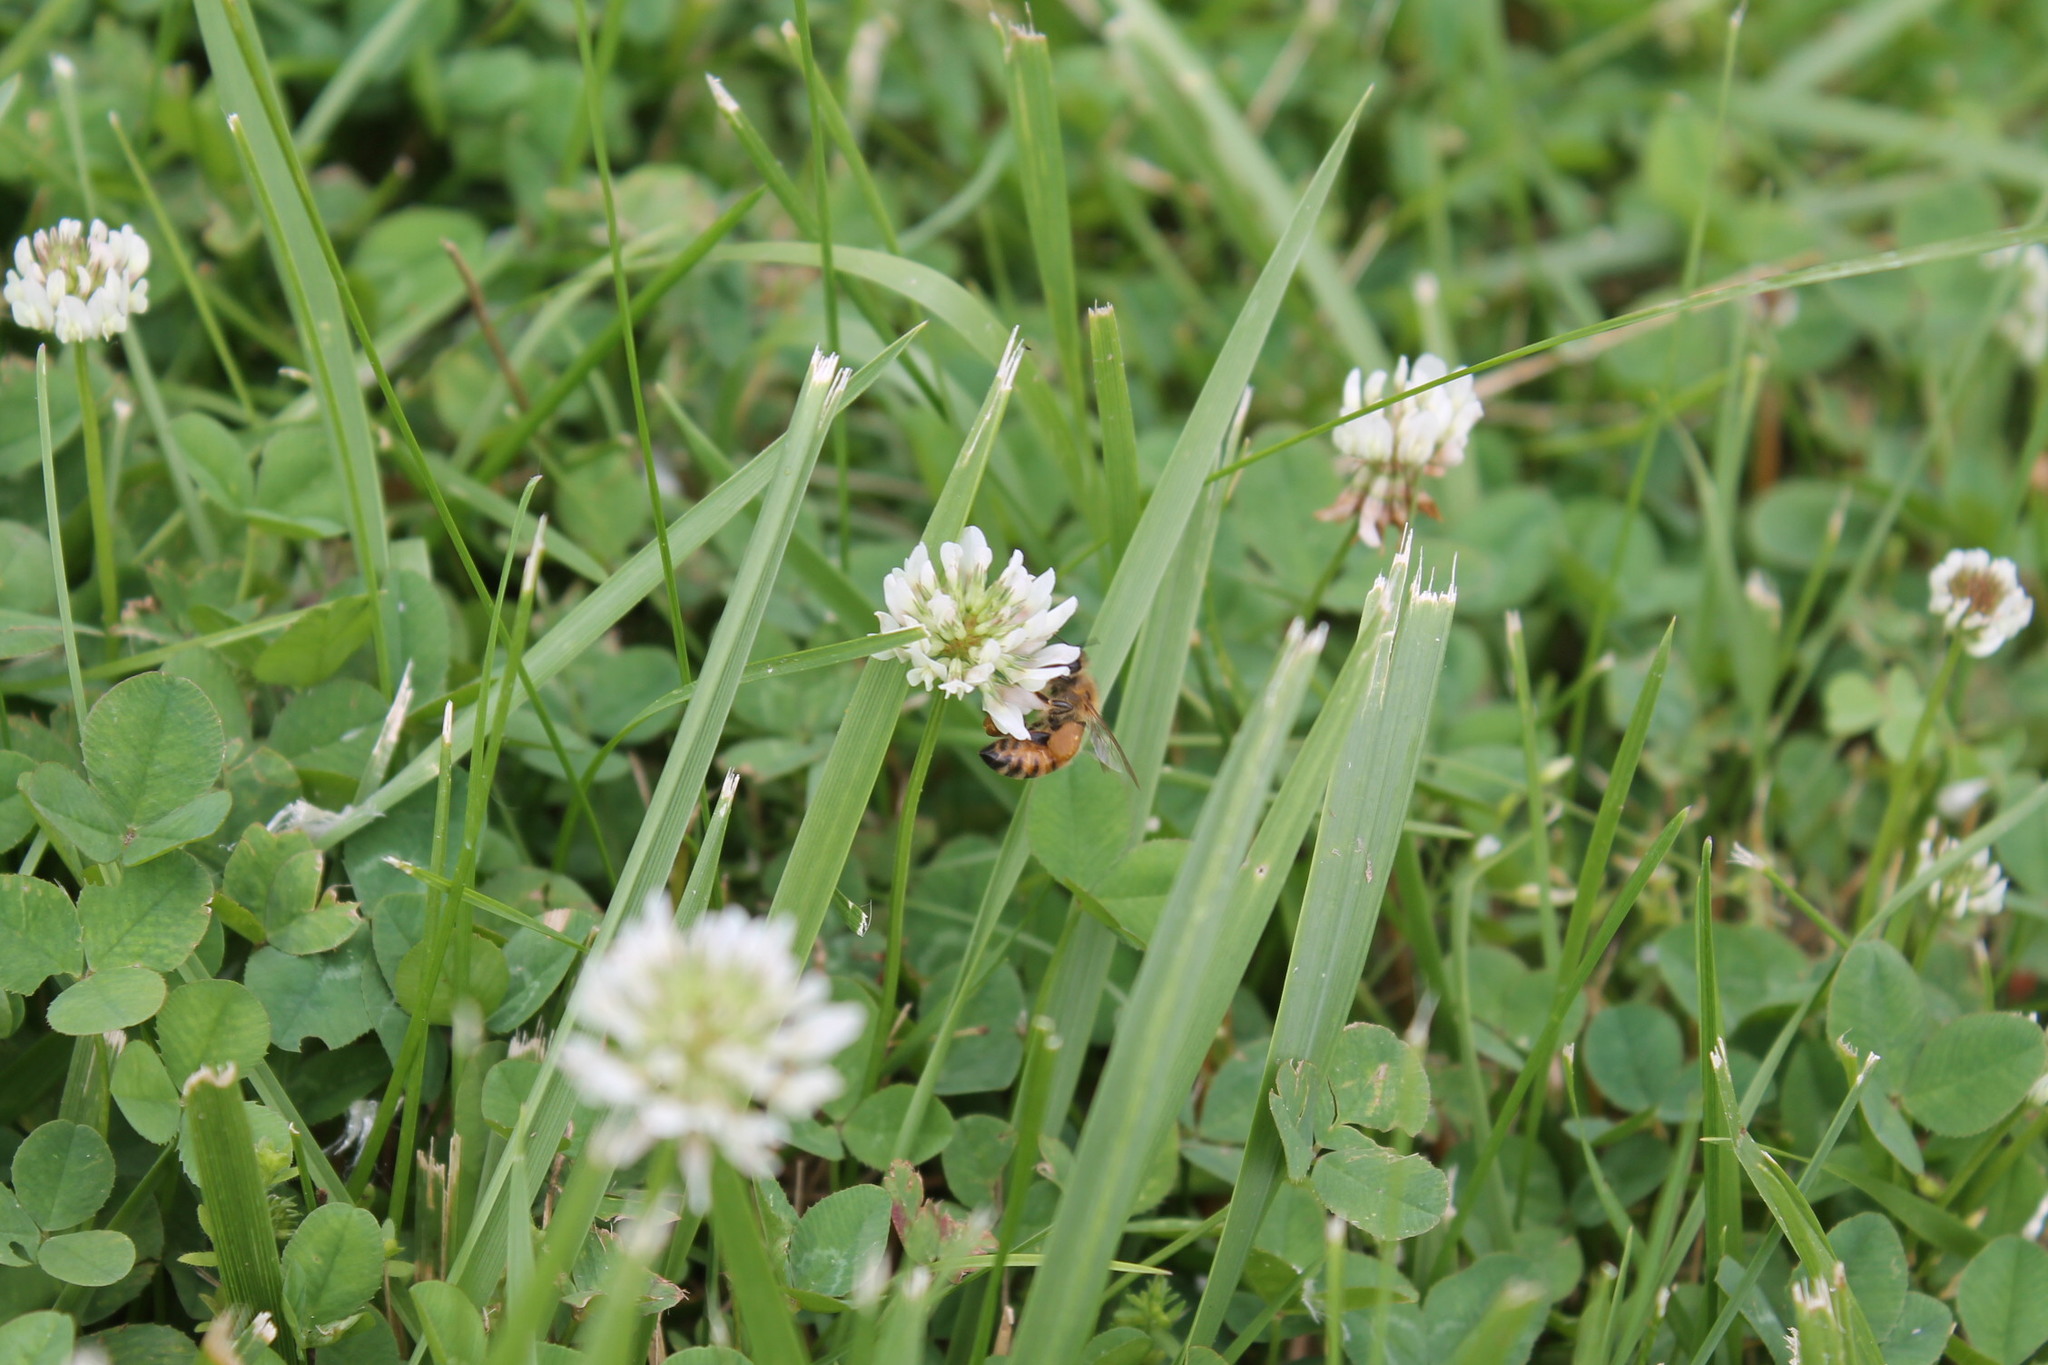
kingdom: Animalia
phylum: Arthropoda
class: Insecta
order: Hymenoptera
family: Apidae
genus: Apis
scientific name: Apis mellifera
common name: Honey bee
